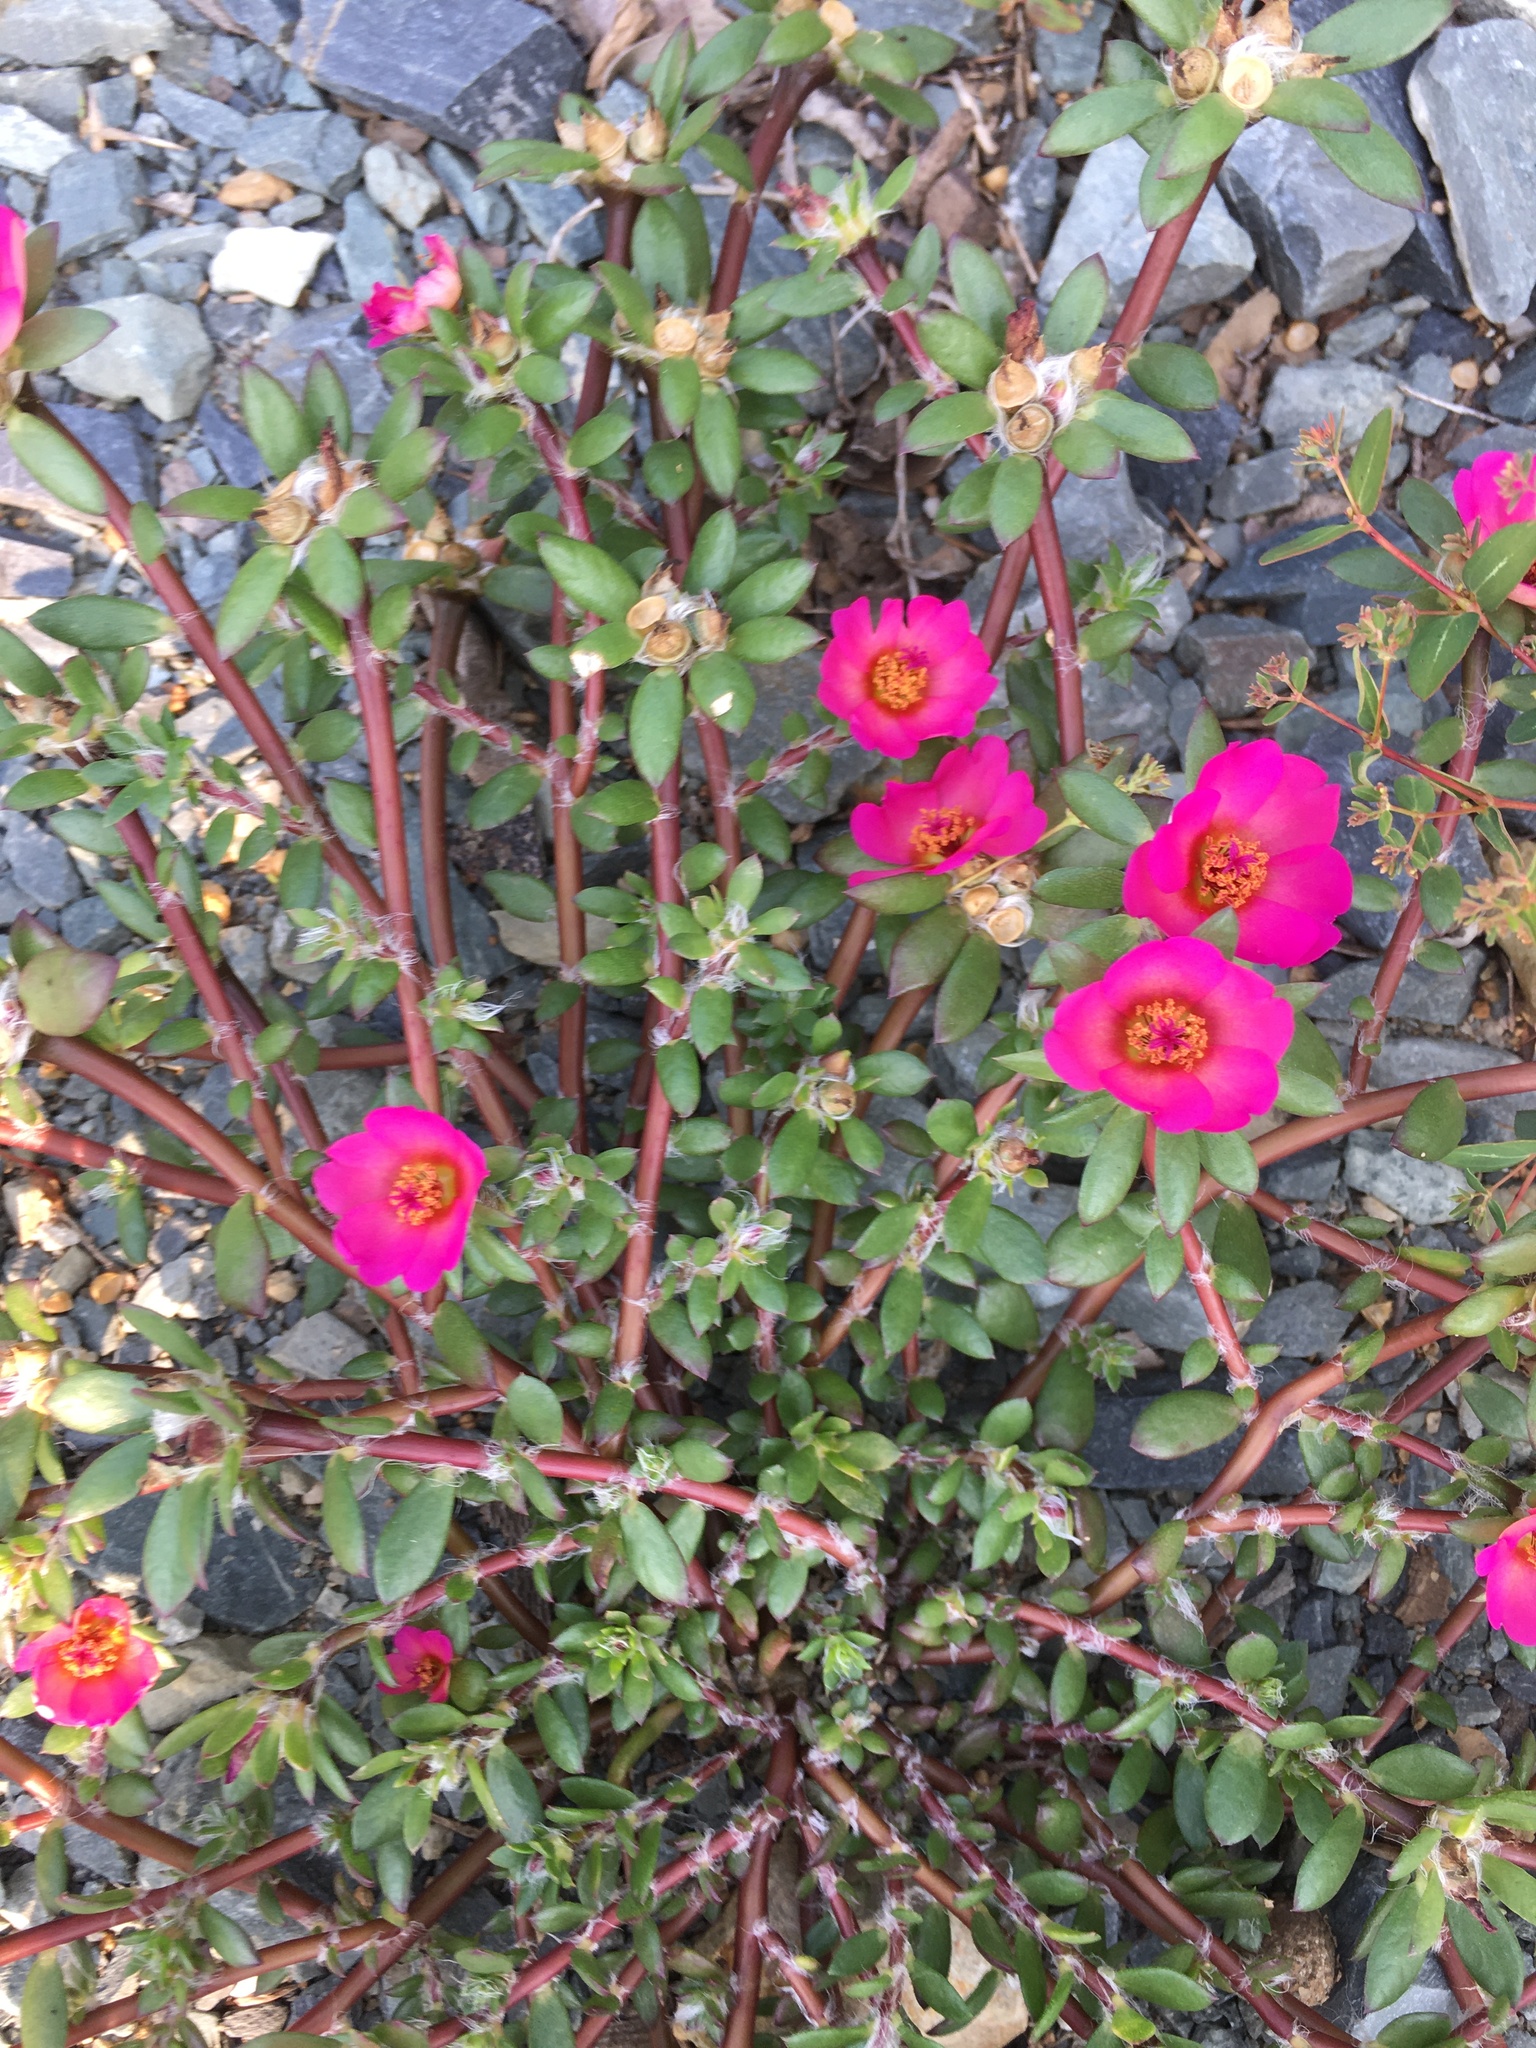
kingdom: Plantae
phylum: Tracheophyta
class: Magnoliopsida
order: Caryophyllales
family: Portulacaceae
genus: Portulaca
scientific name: Portulaca amilis
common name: Paraguayan purslane
